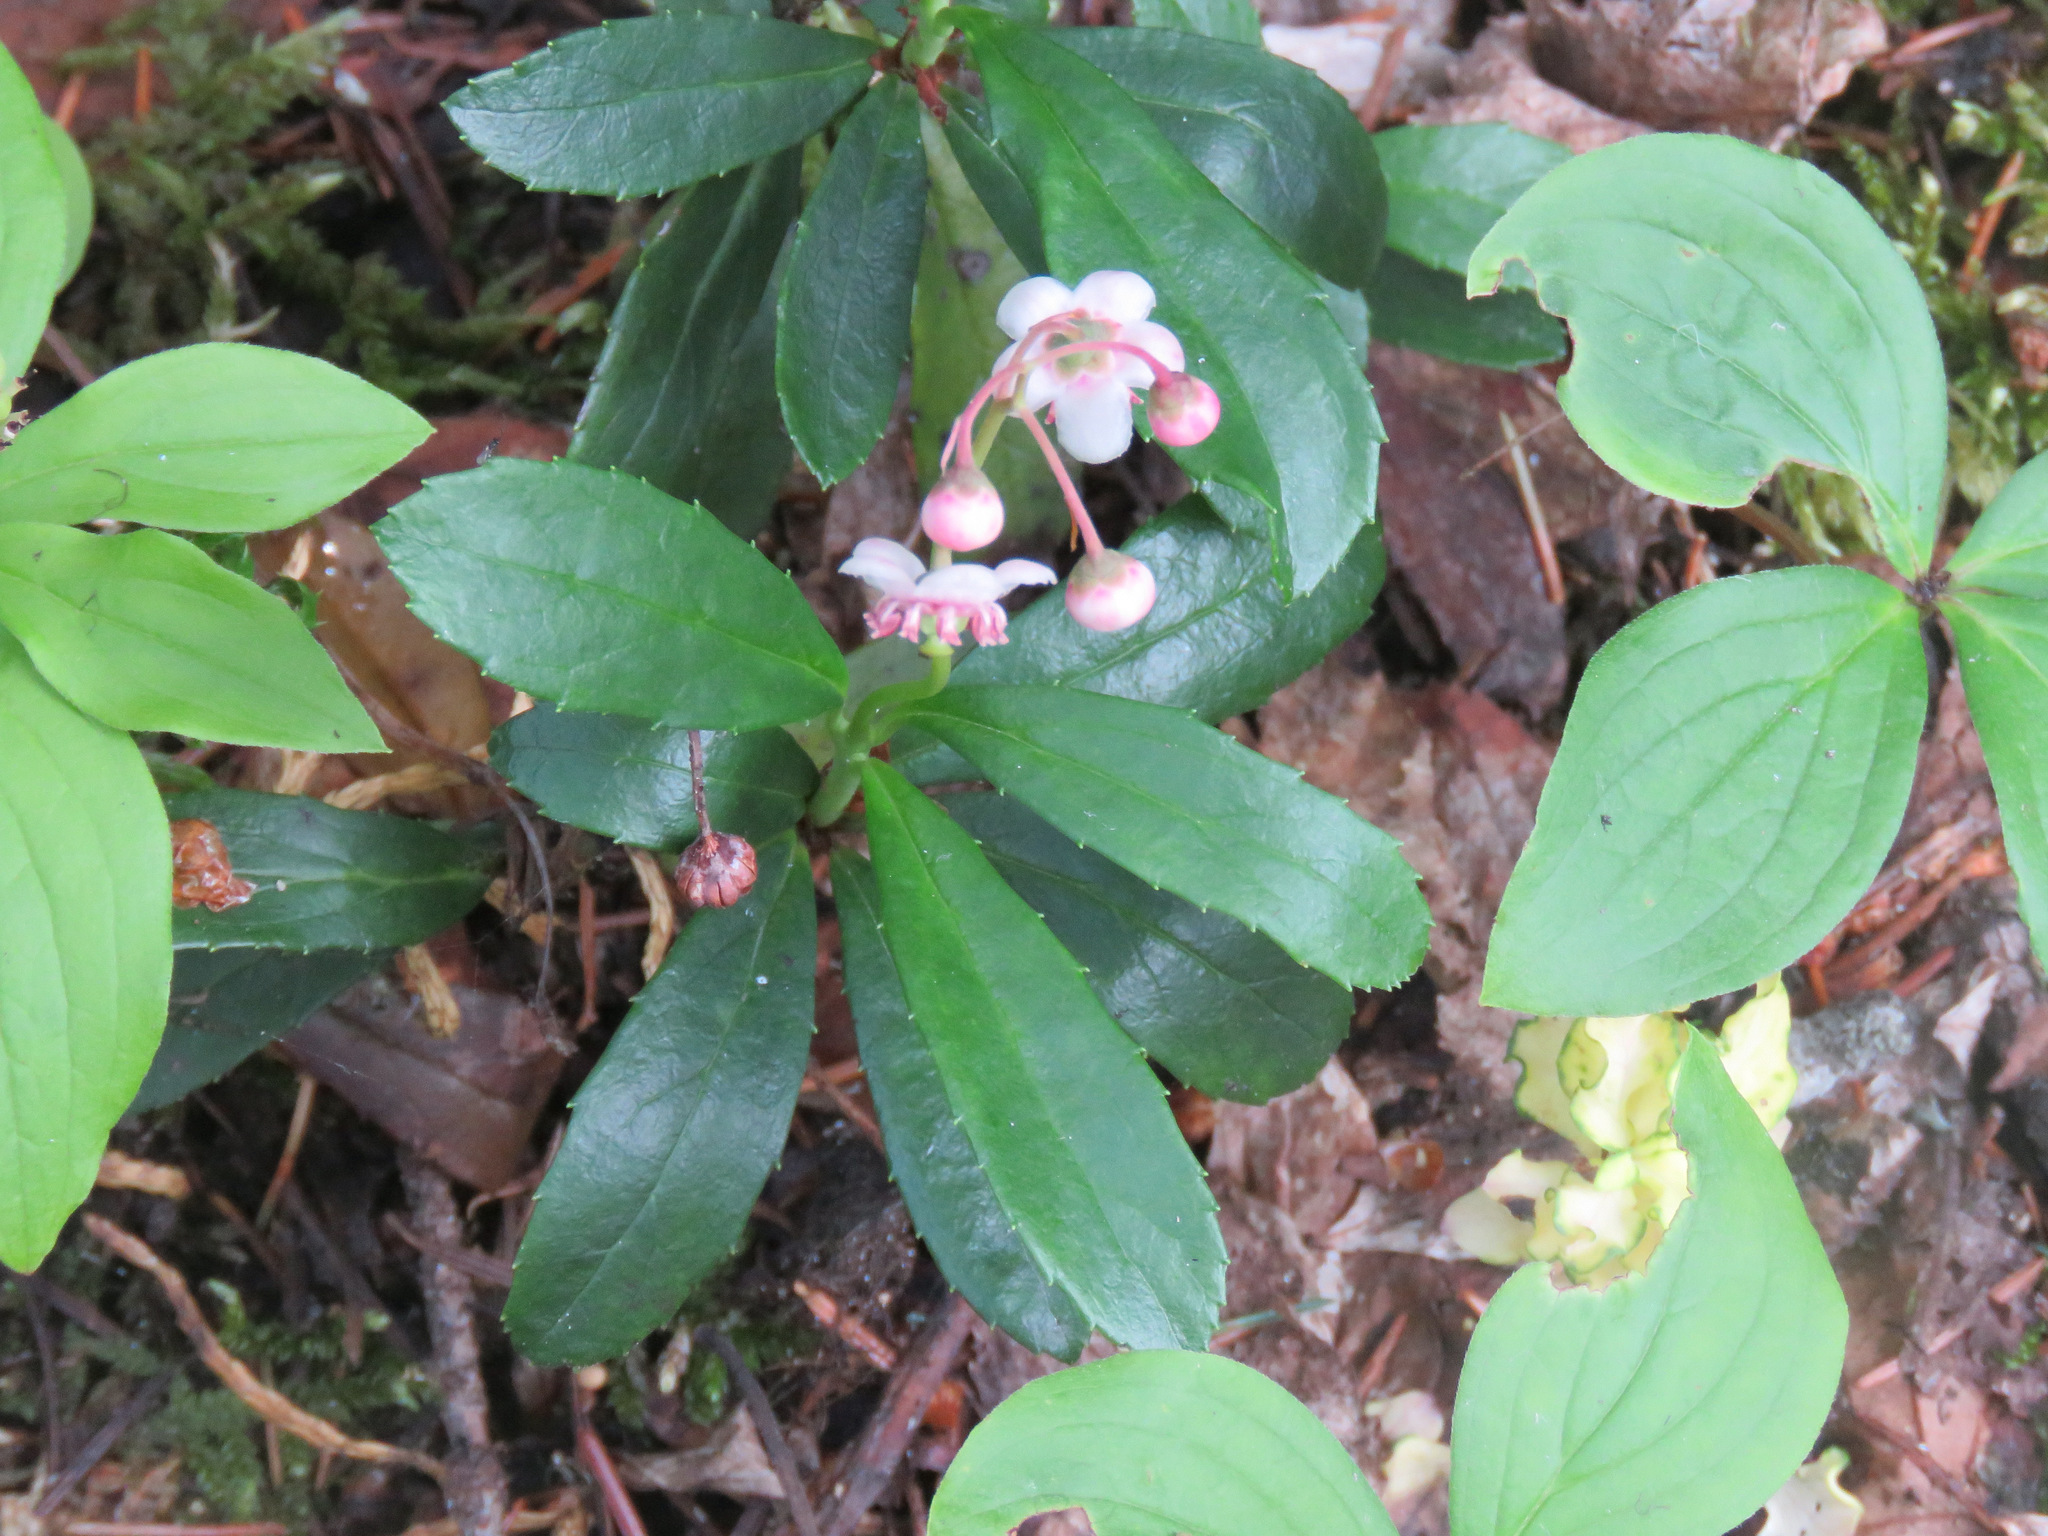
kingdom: Plantae
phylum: Tracheophyta
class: Magnoliopsida
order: Ericales
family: Ericaceae
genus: Chimaphila
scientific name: Chimaphila umbellata
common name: Pipsissewa
